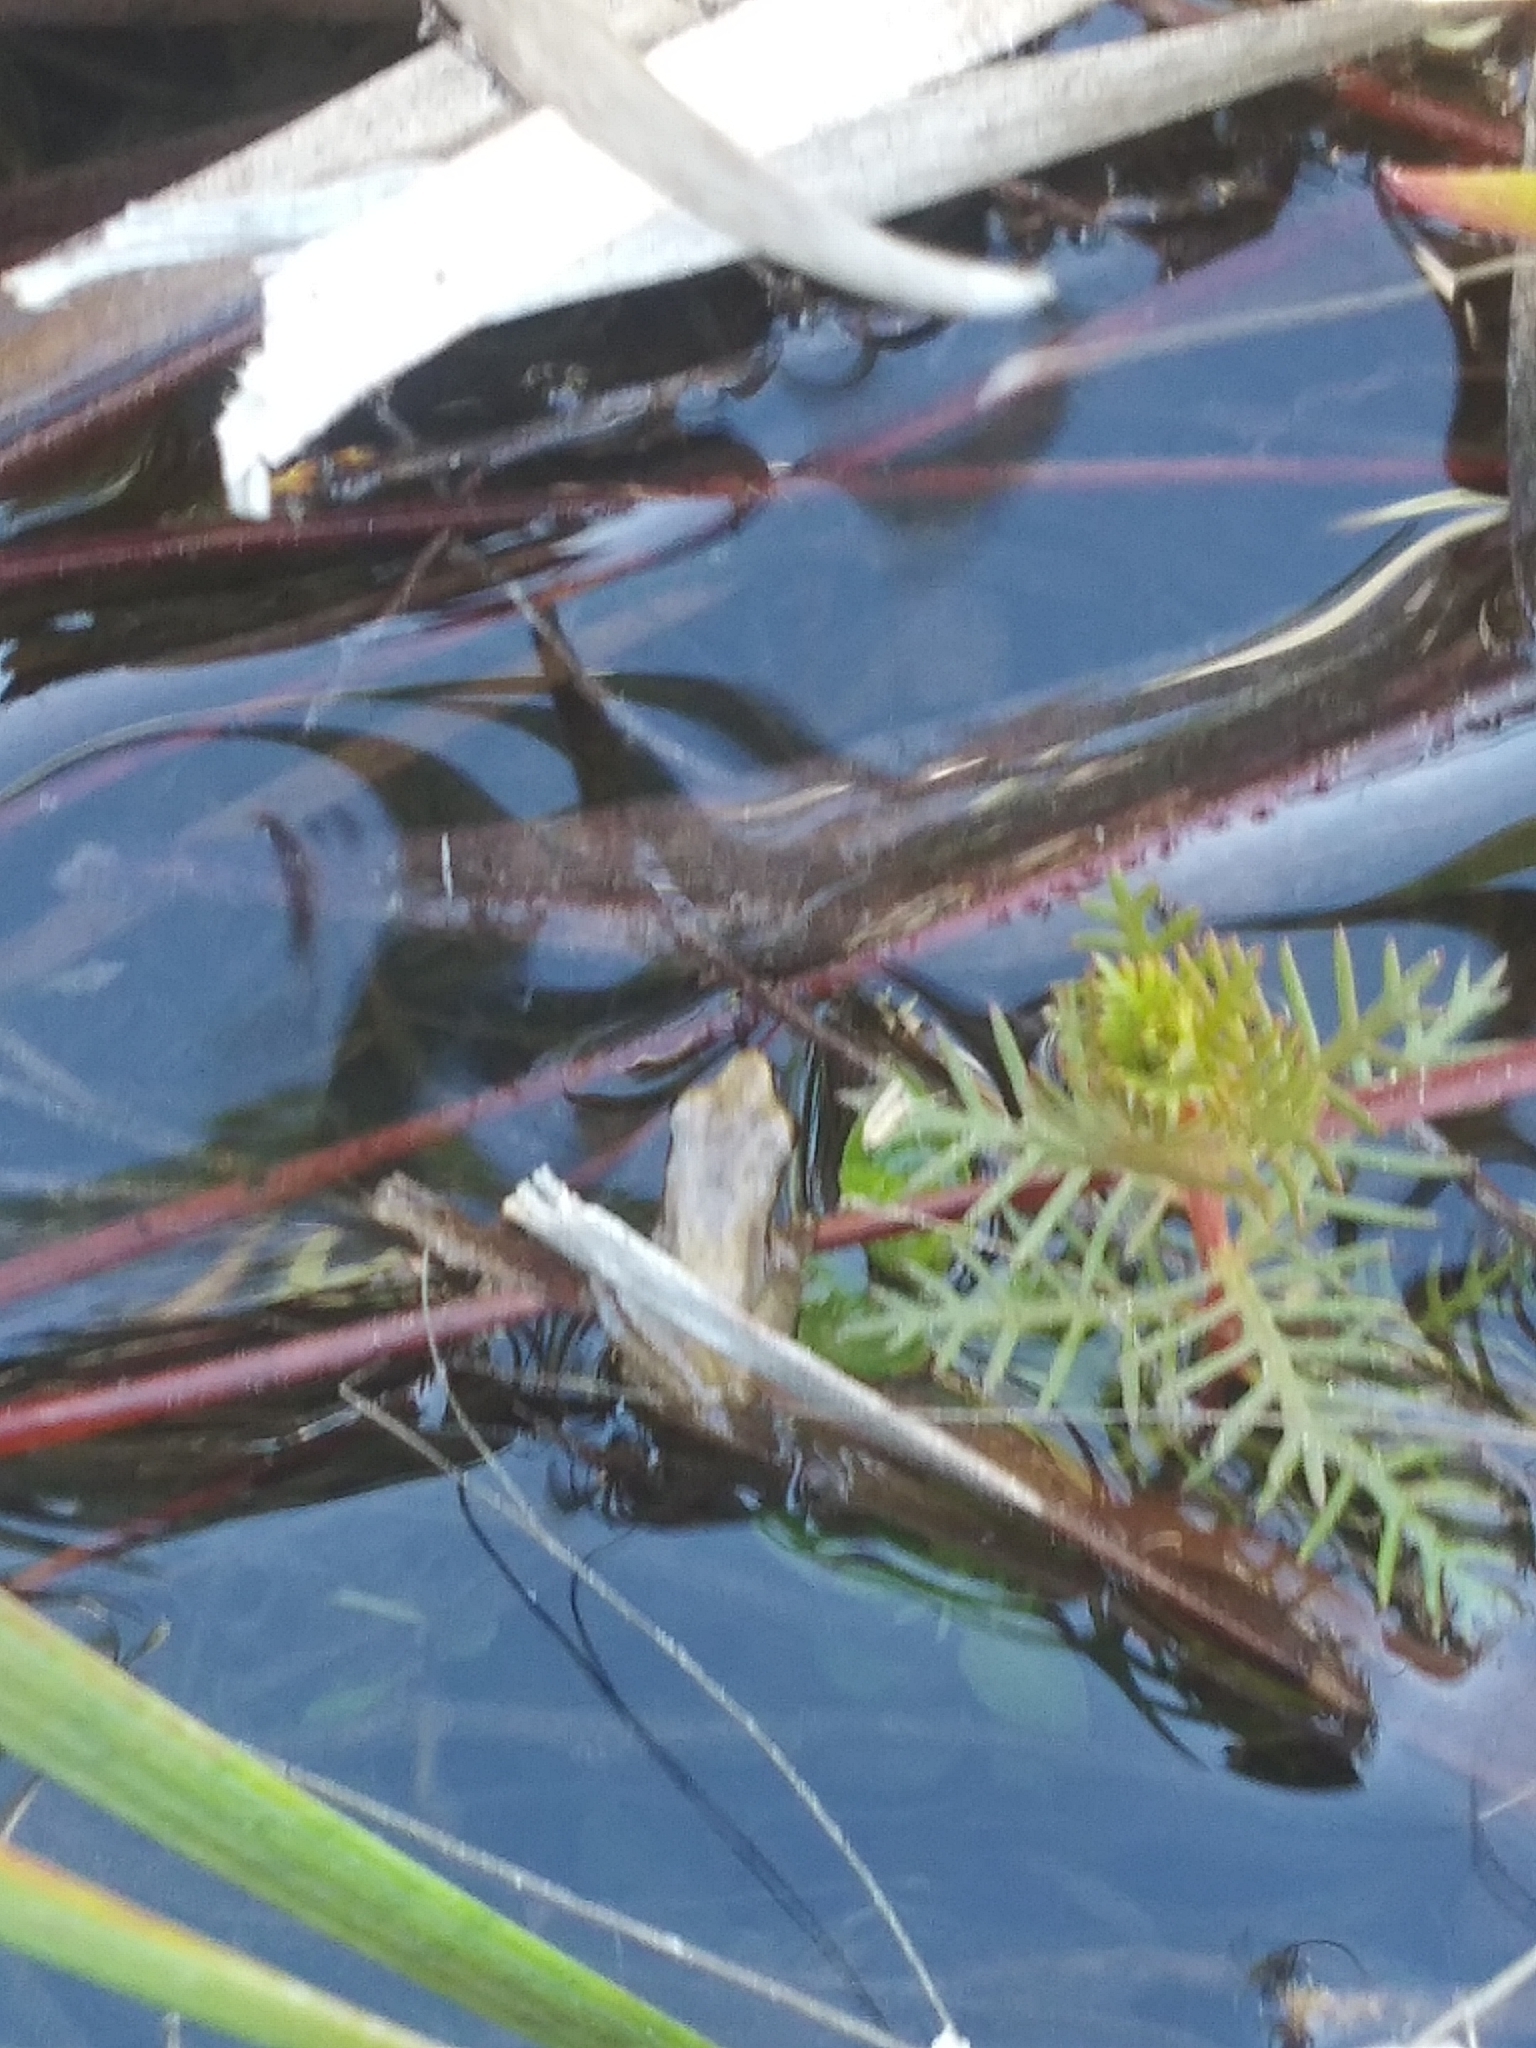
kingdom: Animalia
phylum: Chordata
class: Amphibia
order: Anura
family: Hylidae
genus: Pseudacris
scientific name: Pseudacris ocularis
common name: Little grass frog
